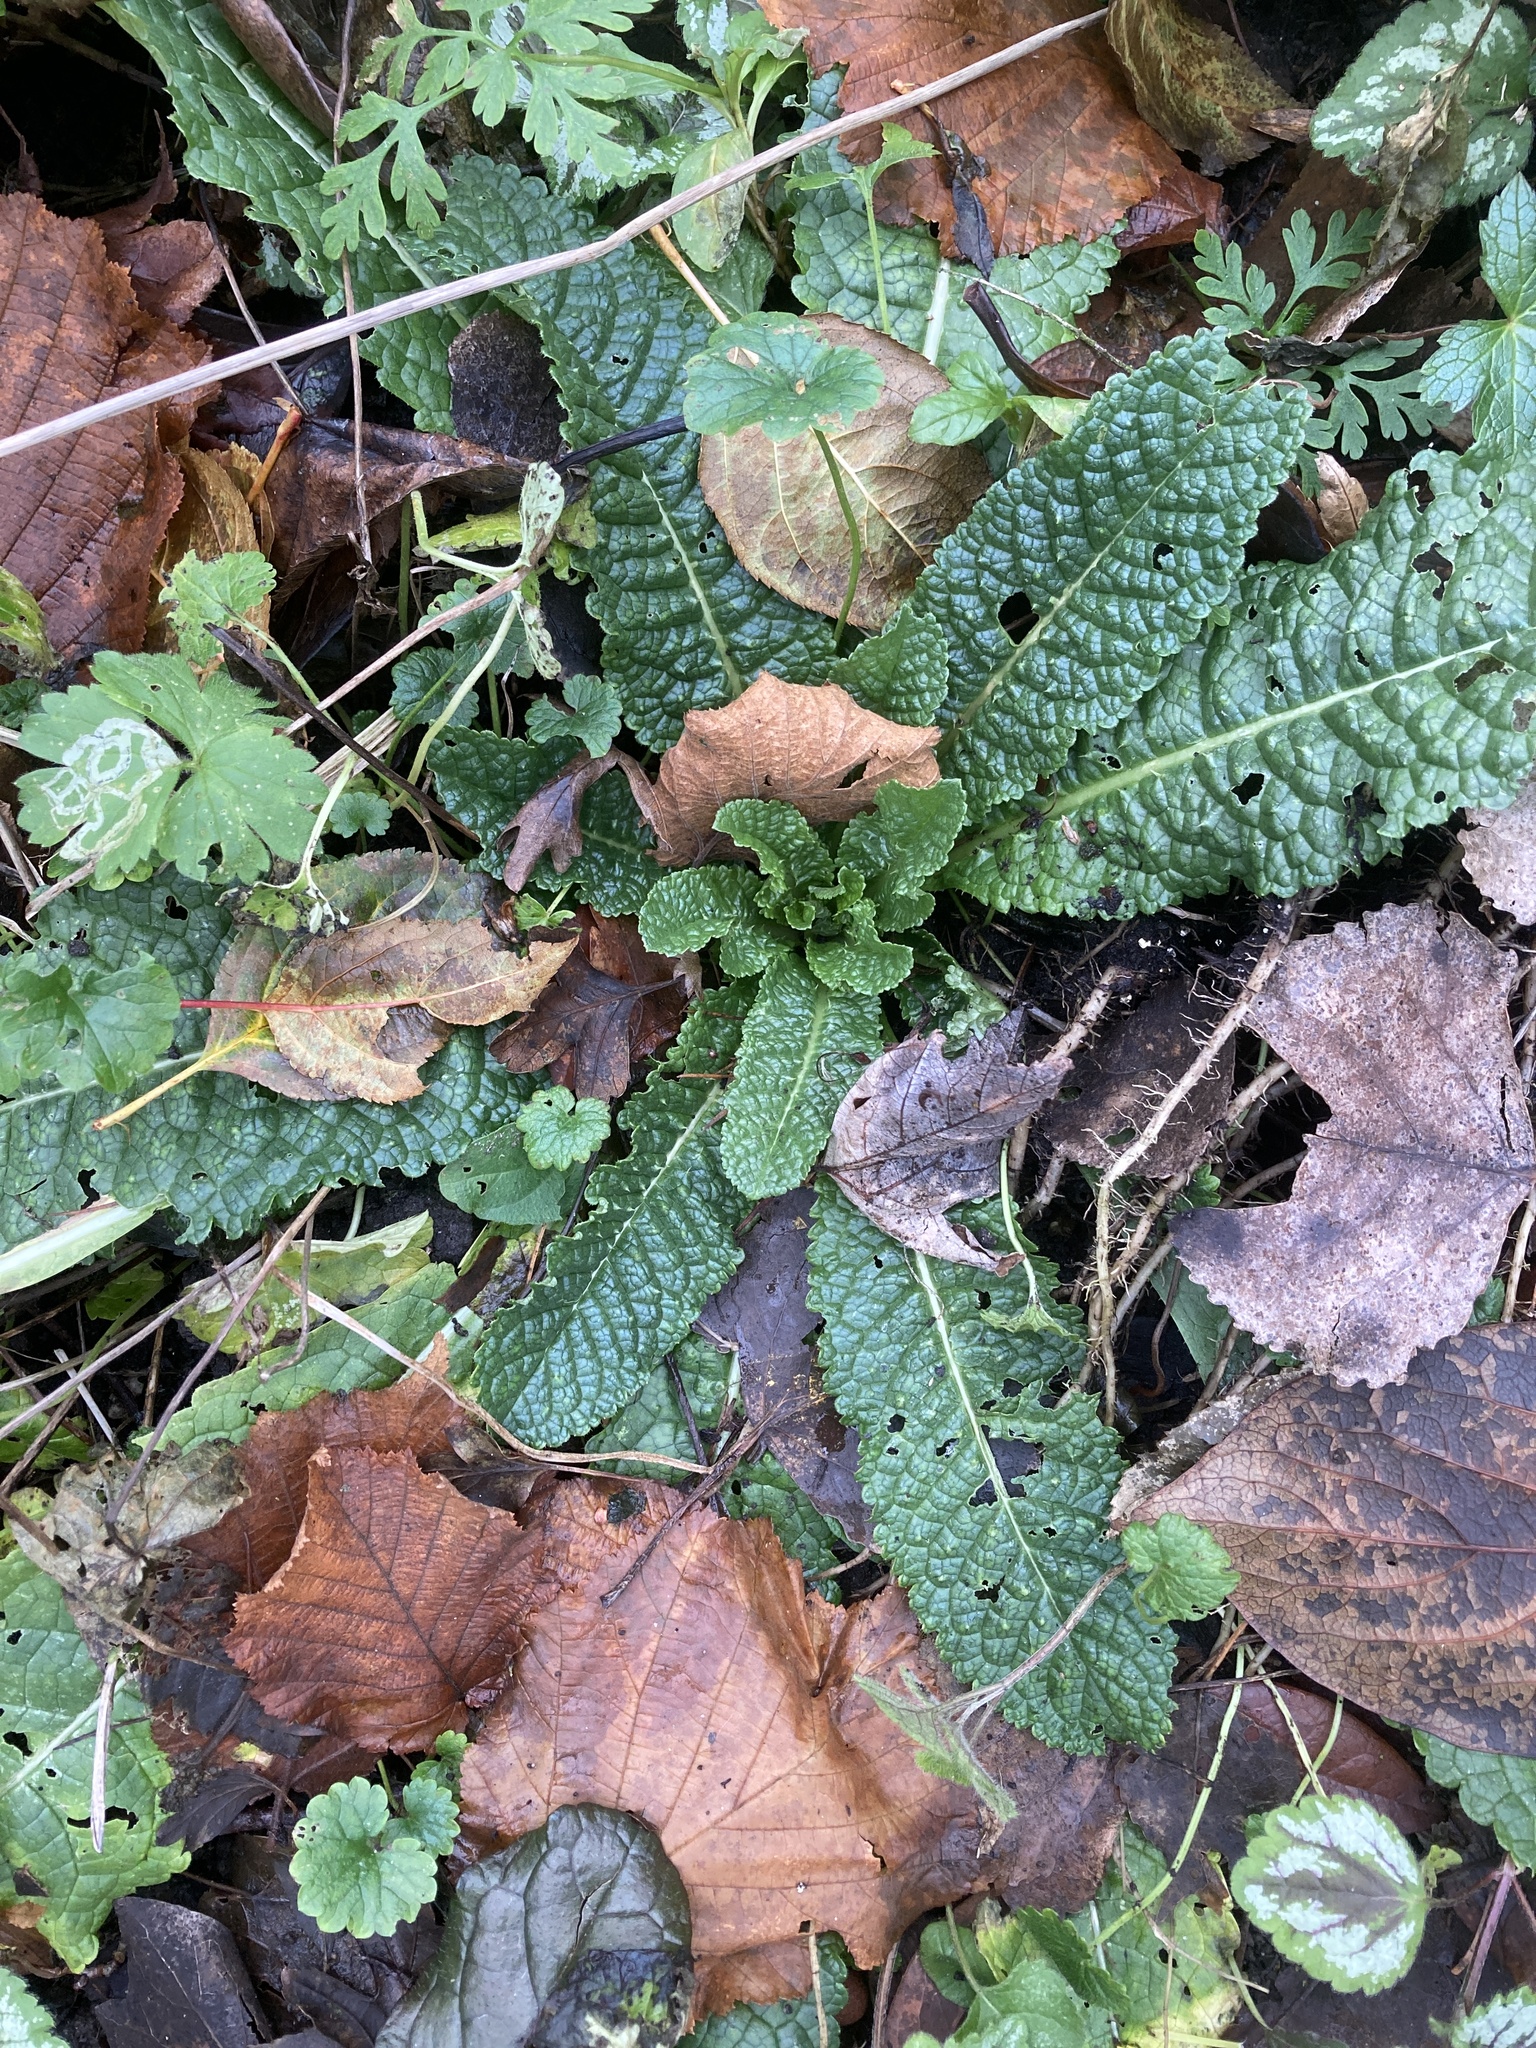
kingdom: Plantae
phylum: Tracheophyta
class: Magnoliopsida
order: Dipsacales
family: Caprifoliaceae
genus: Dipsacus
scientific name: Dipsacus fullonum
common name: Teasel
